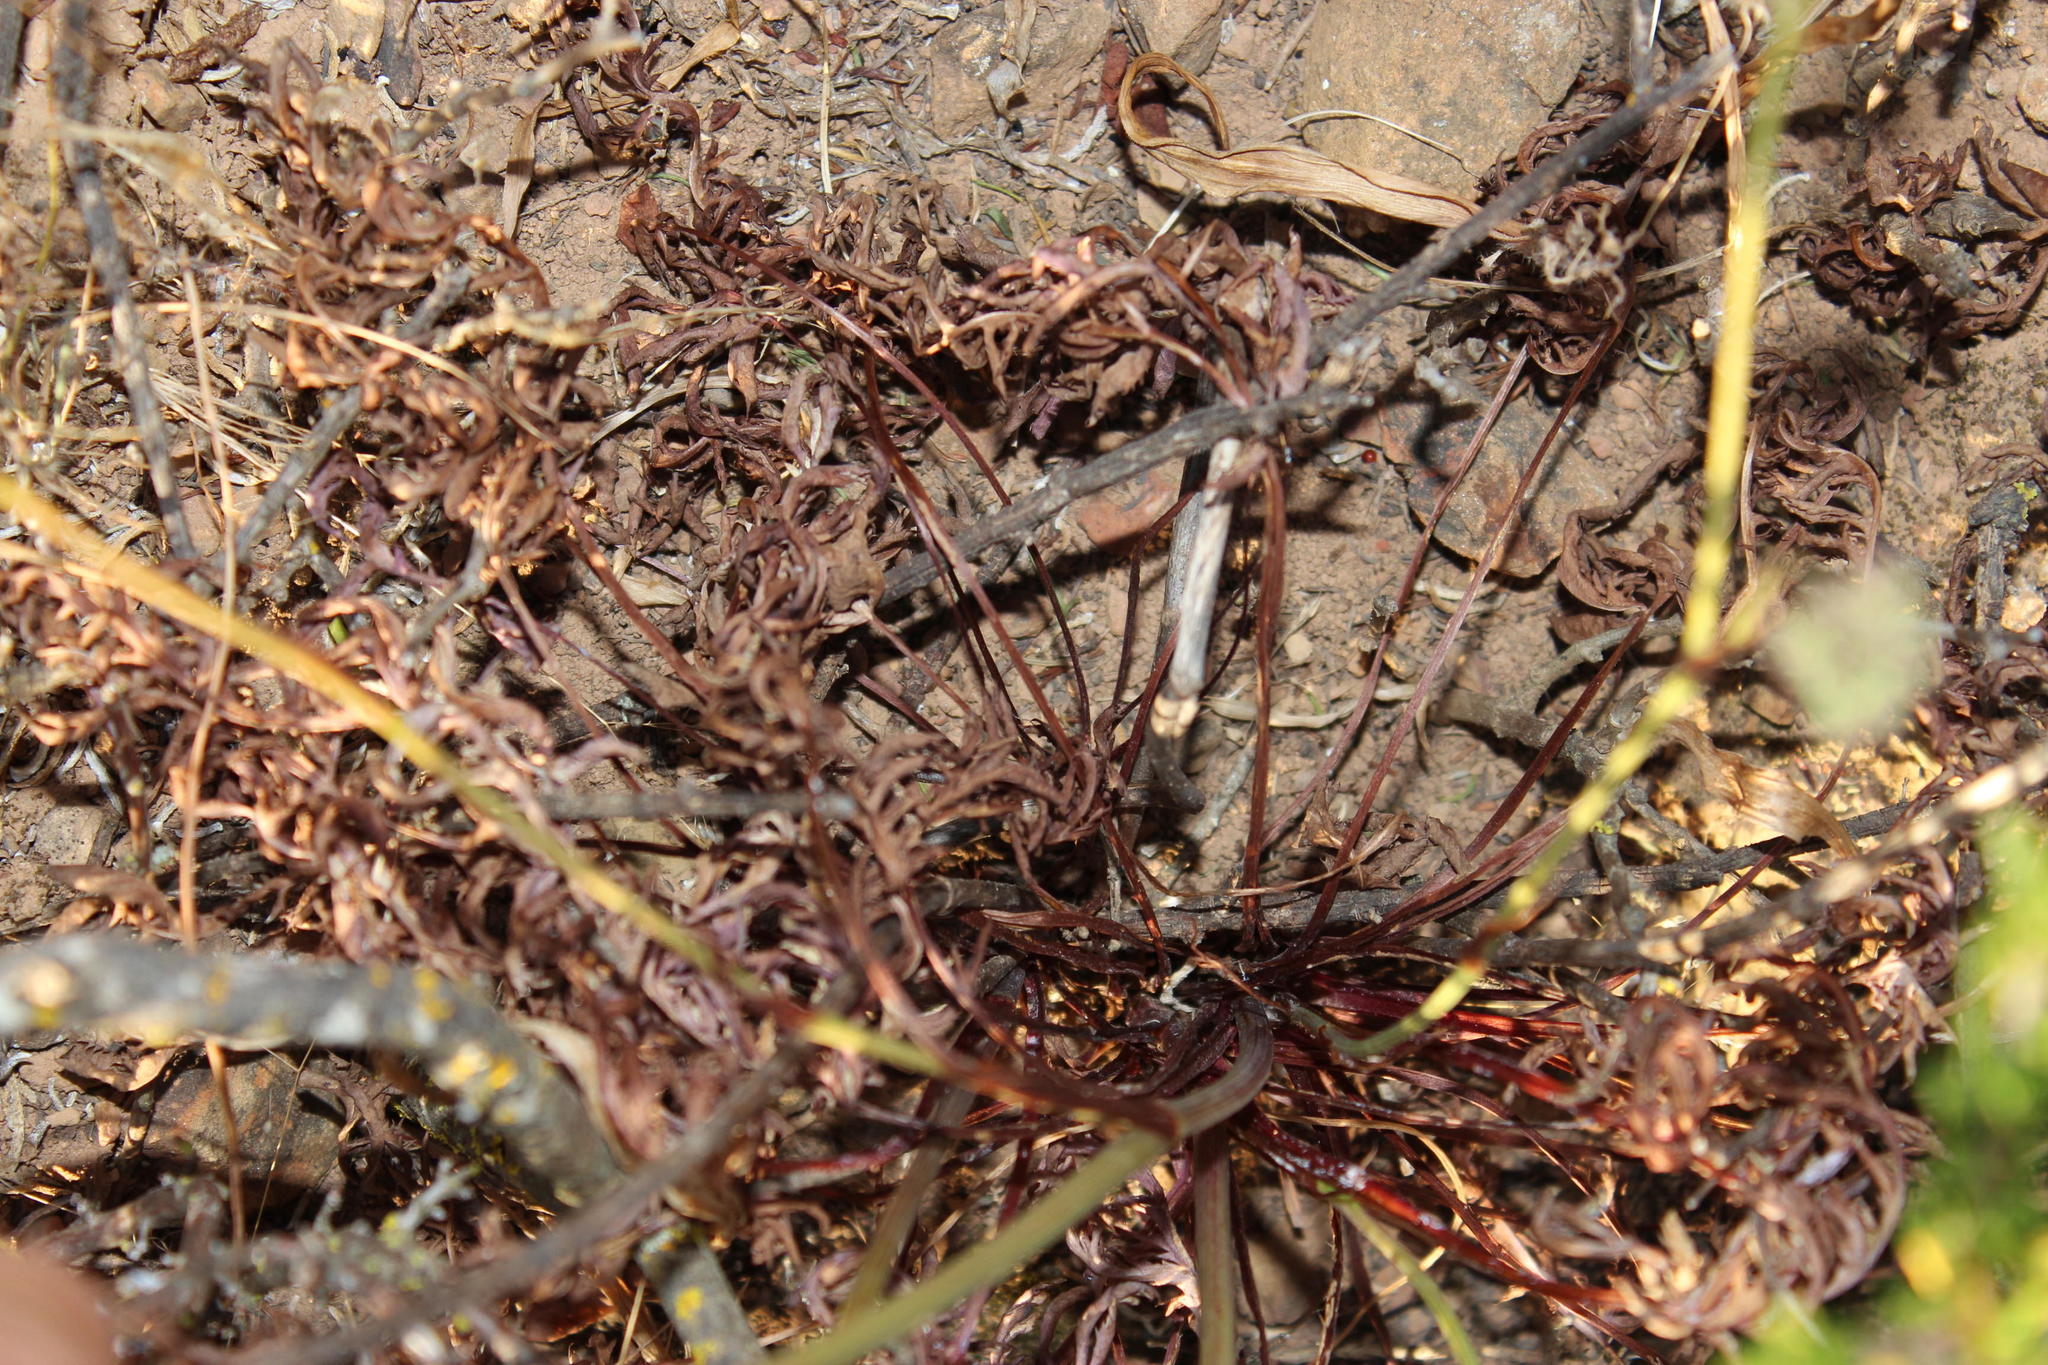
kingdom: Plantae
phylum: Tracheophyta
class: Magnoliopsida
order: Apiales
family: Apiaceae
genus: Lichtensteinia
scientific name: Lichtensteinia obscura
